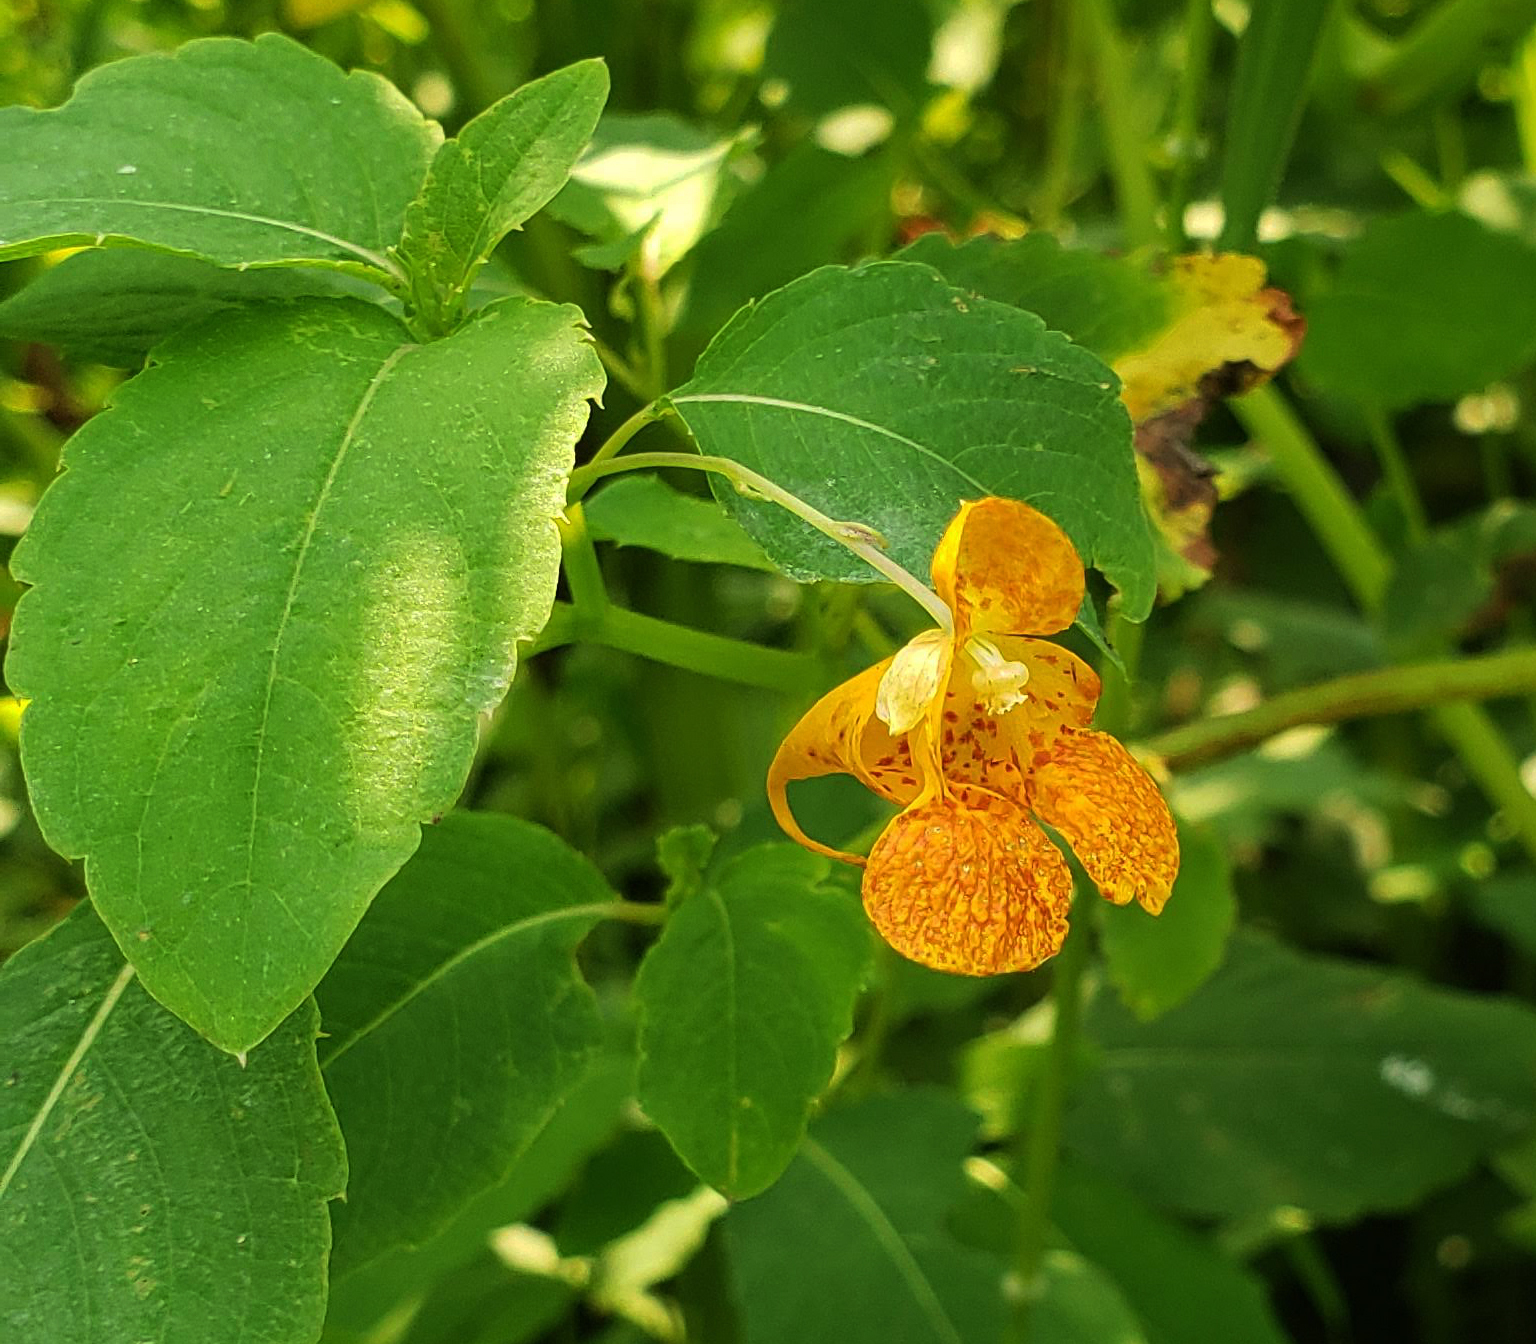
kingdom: Plantae
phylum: Tracheophyta
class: Magnoliopsida
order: Ericales
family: Balsaminaceae
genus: Impatiens
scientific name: Impatiens capensis
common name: Orange balsam
